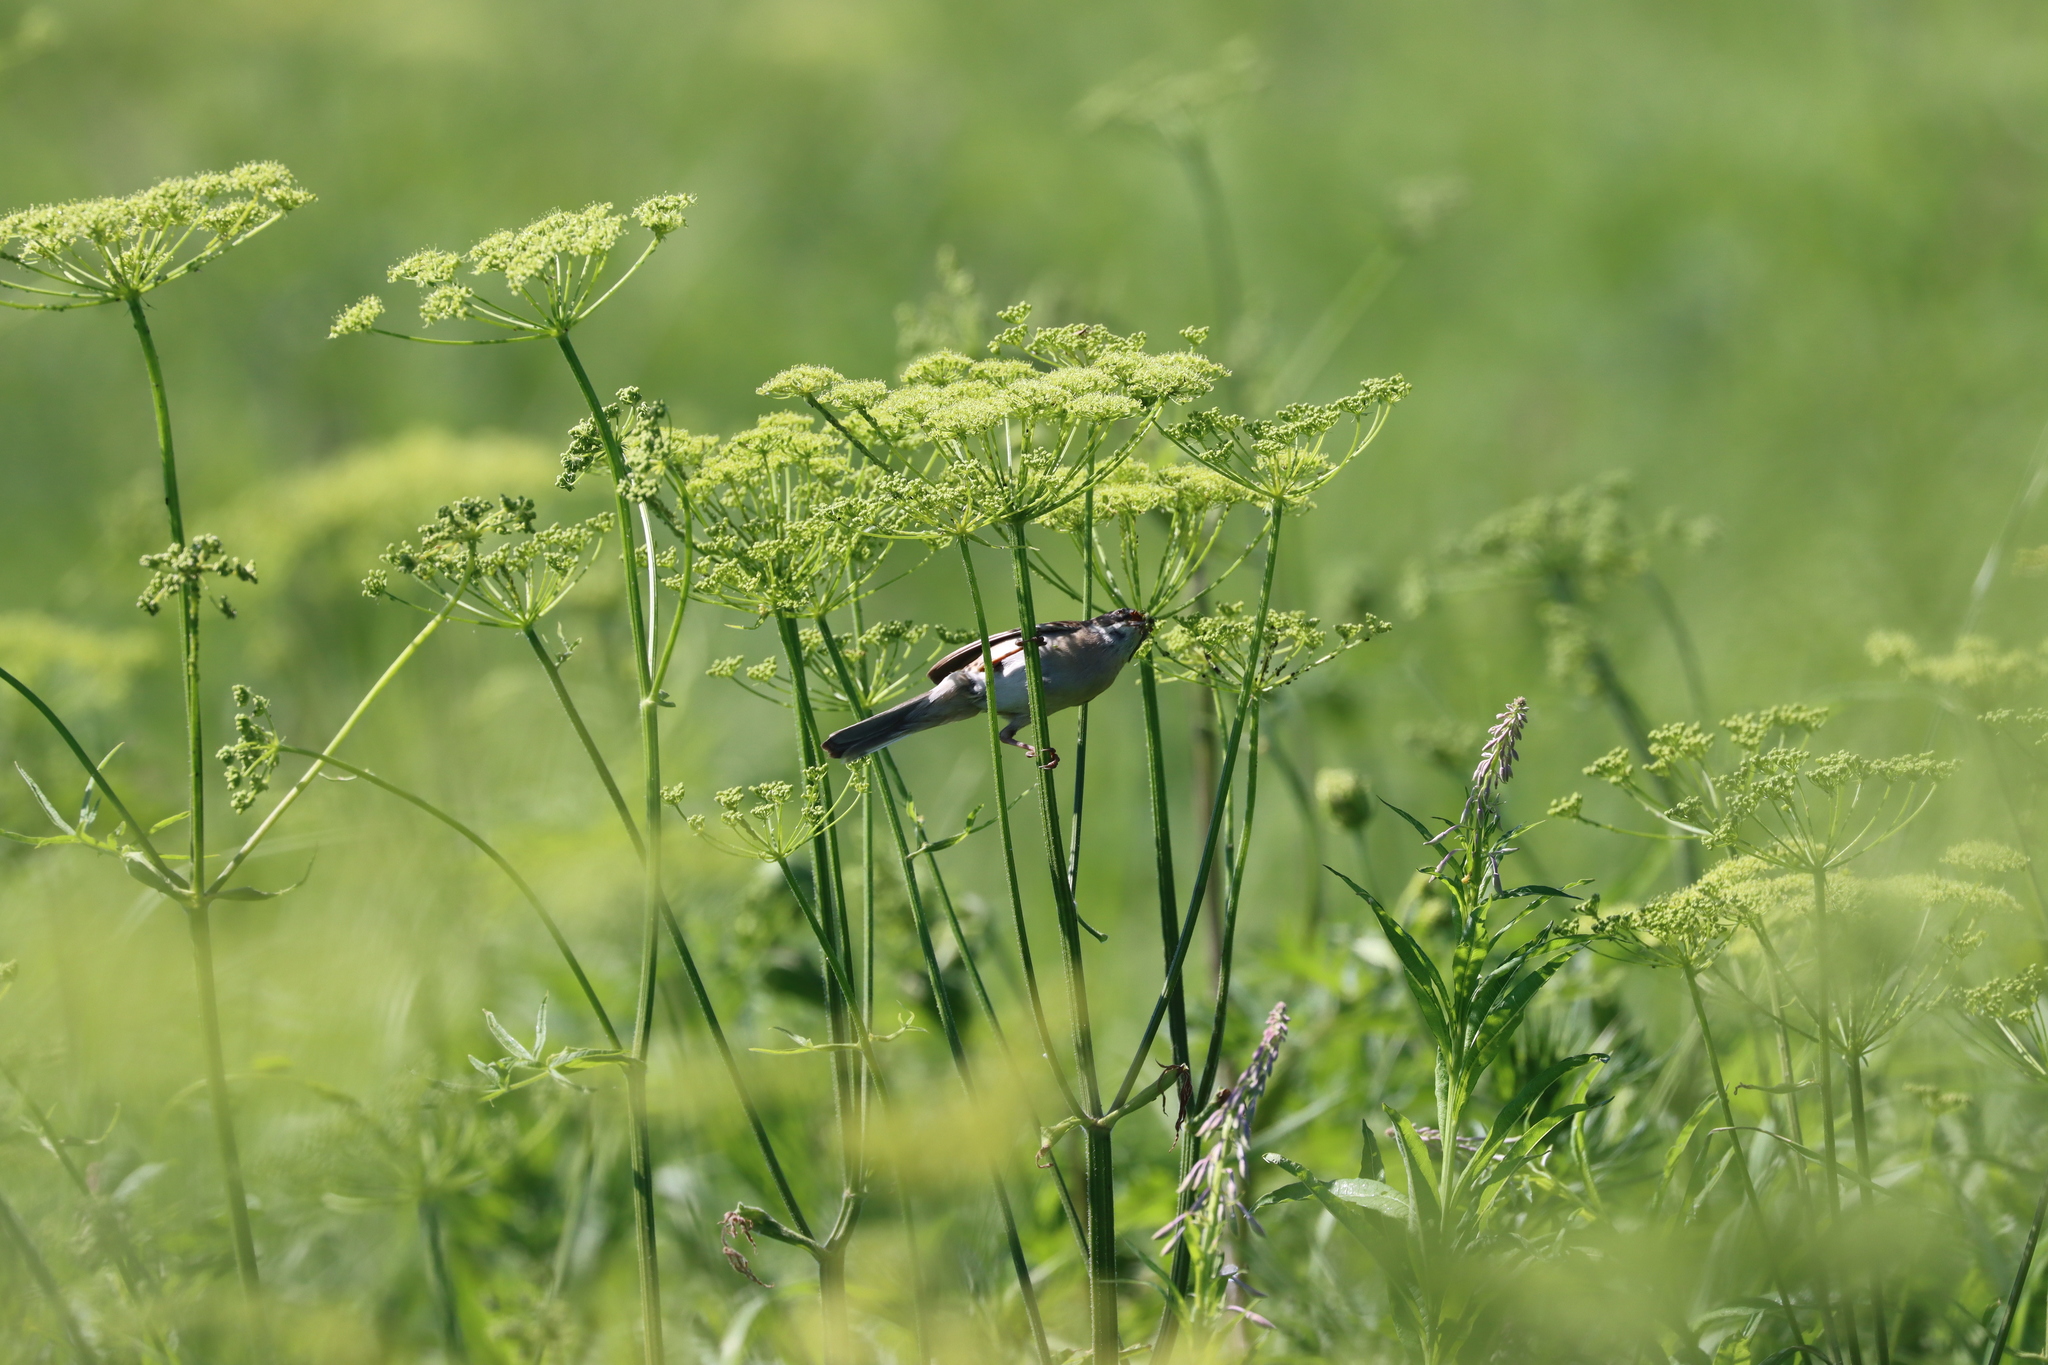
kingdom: Animalia
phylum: Chordata
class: Aves
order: Passeriformes
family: Sylviidae
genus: Sylvia
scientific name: Sylvia communis
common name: Common whitethroat
